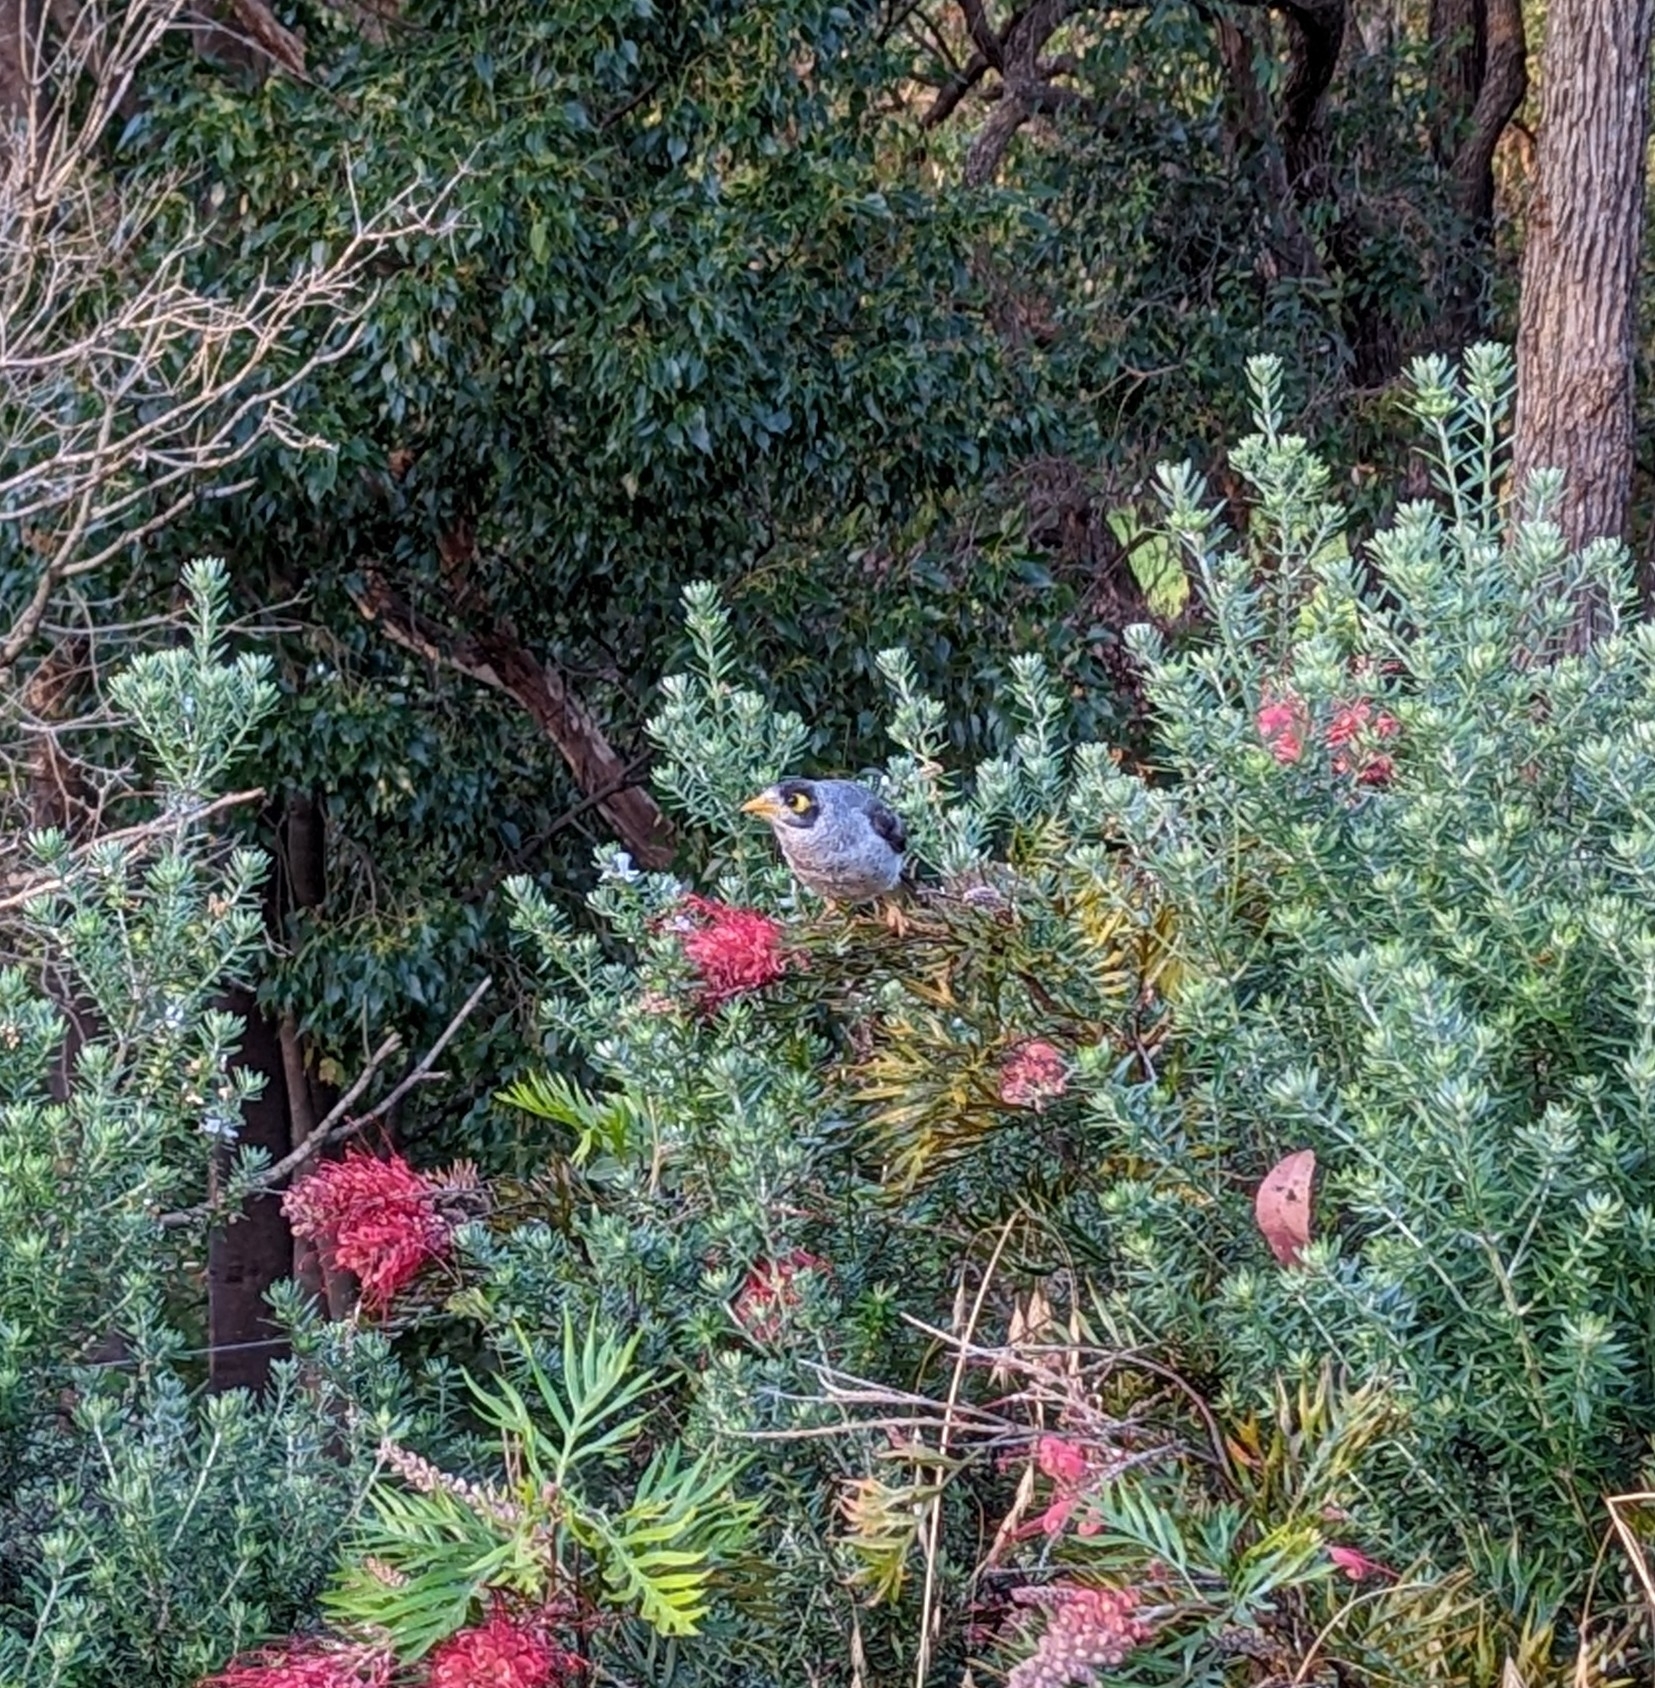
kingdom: Animalia
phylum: Chordata
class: Aves
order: Passeriformes
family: Meliphagidae
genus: Manorina
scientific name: Manorina melanocephala
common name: Noisy miner
